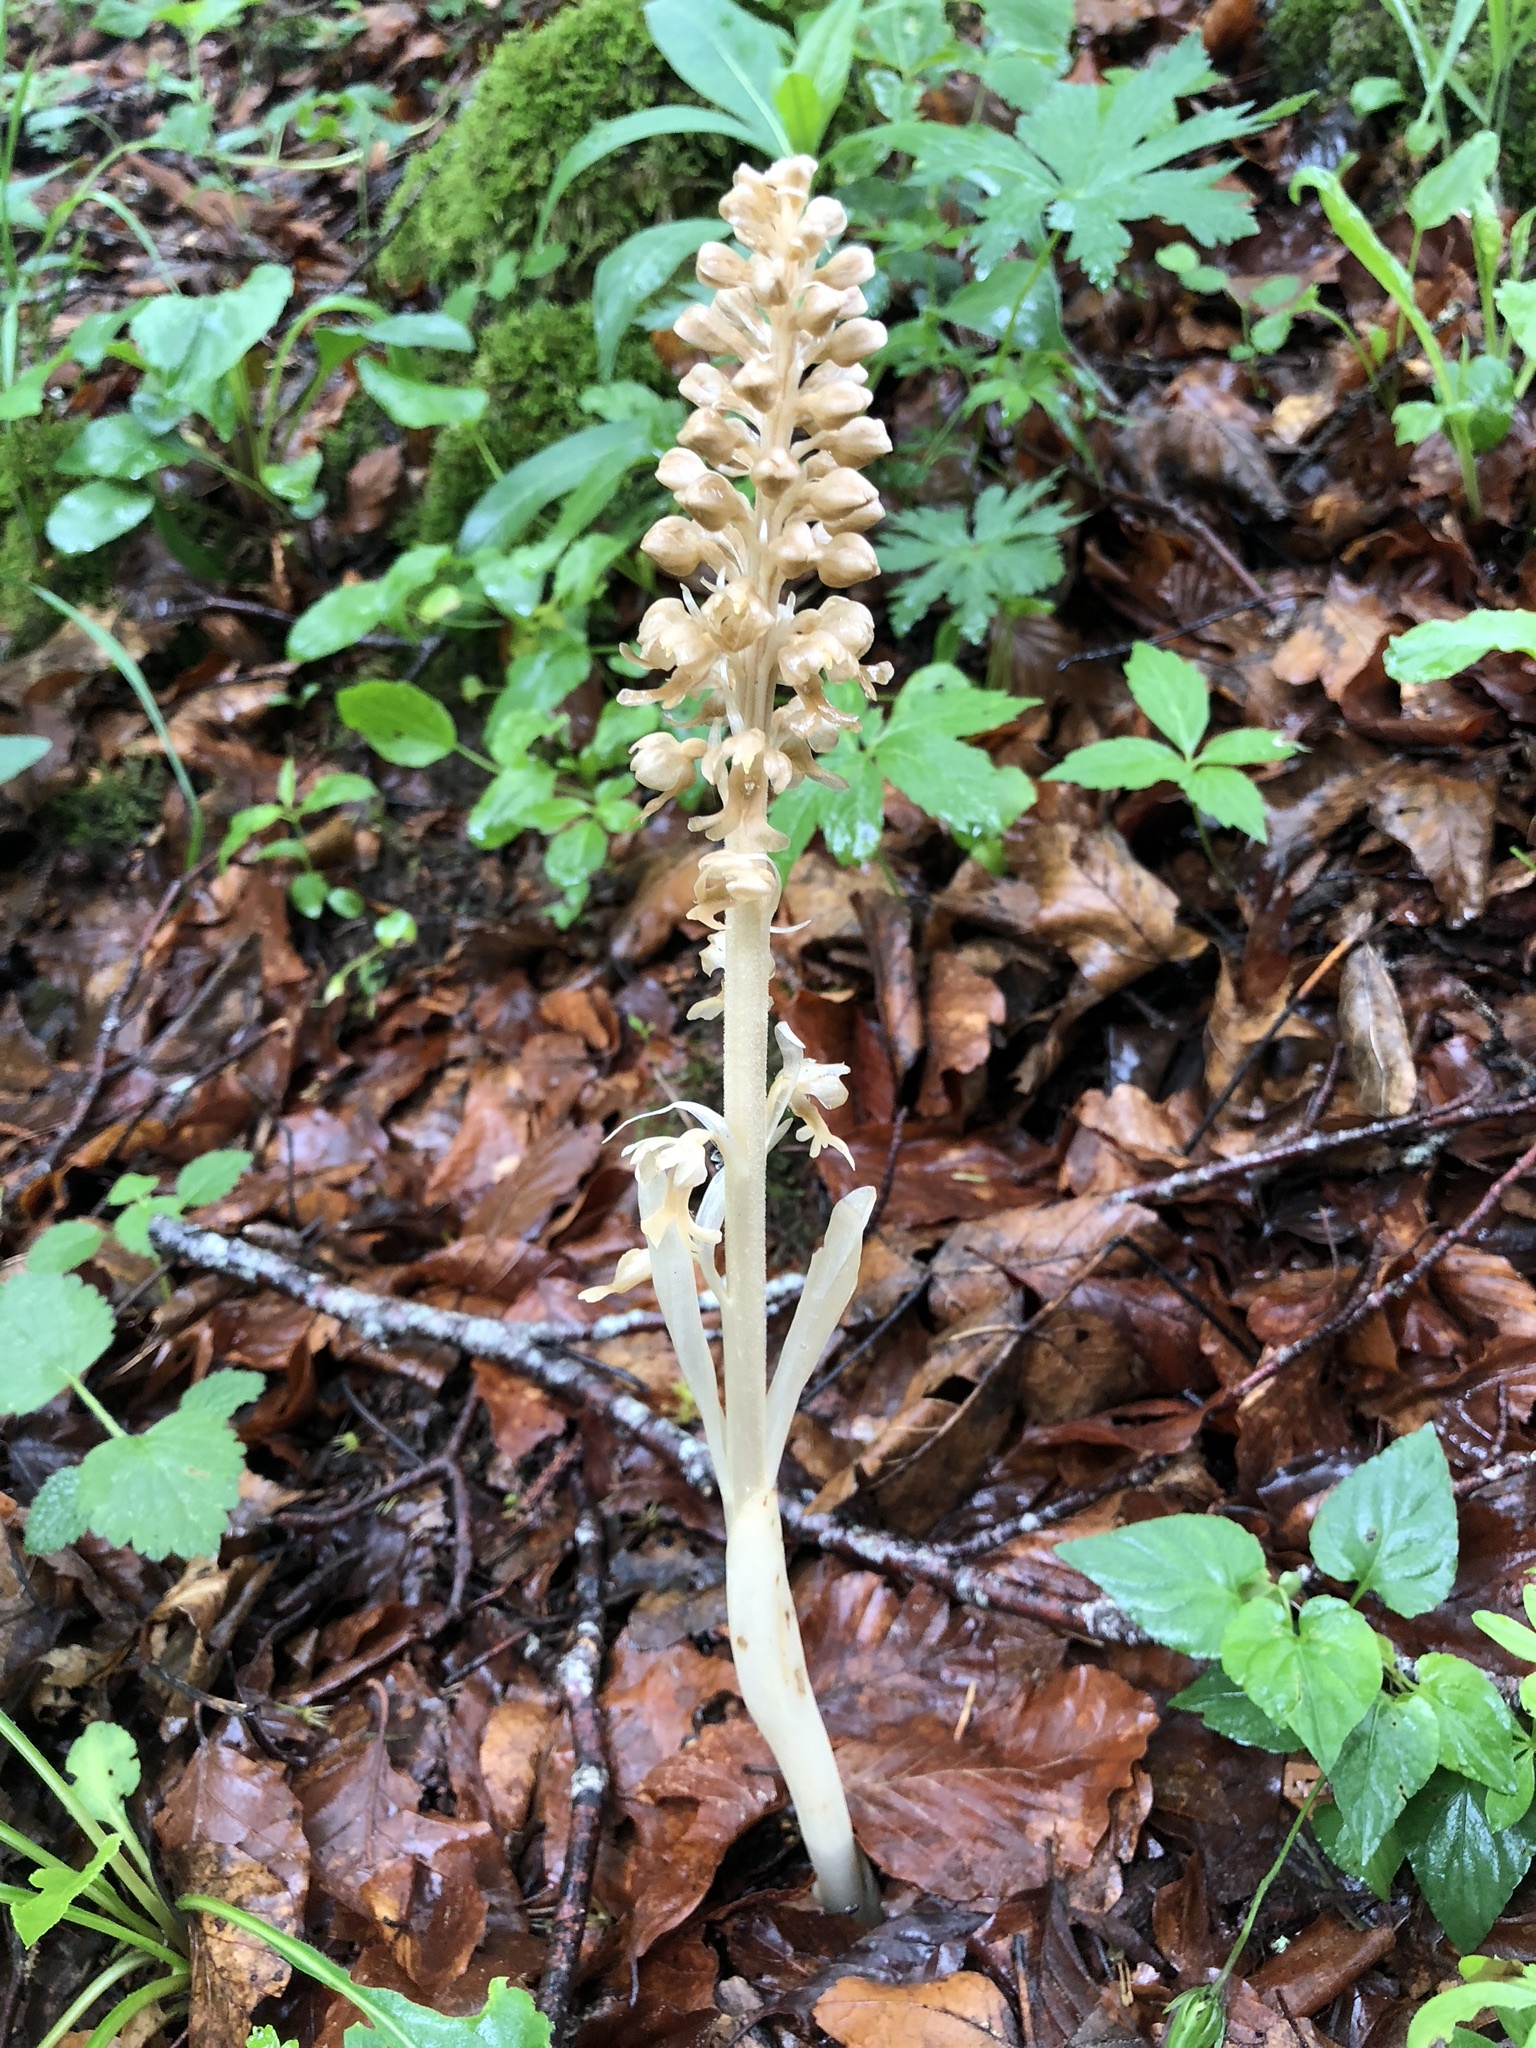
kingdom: Plantae
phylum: Tracheophyta
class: Liliopsida
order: Asparagales
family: Orchidaceae
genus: Neottia
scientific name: Neottia nidus-avis
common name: Bird's-nest orchid
